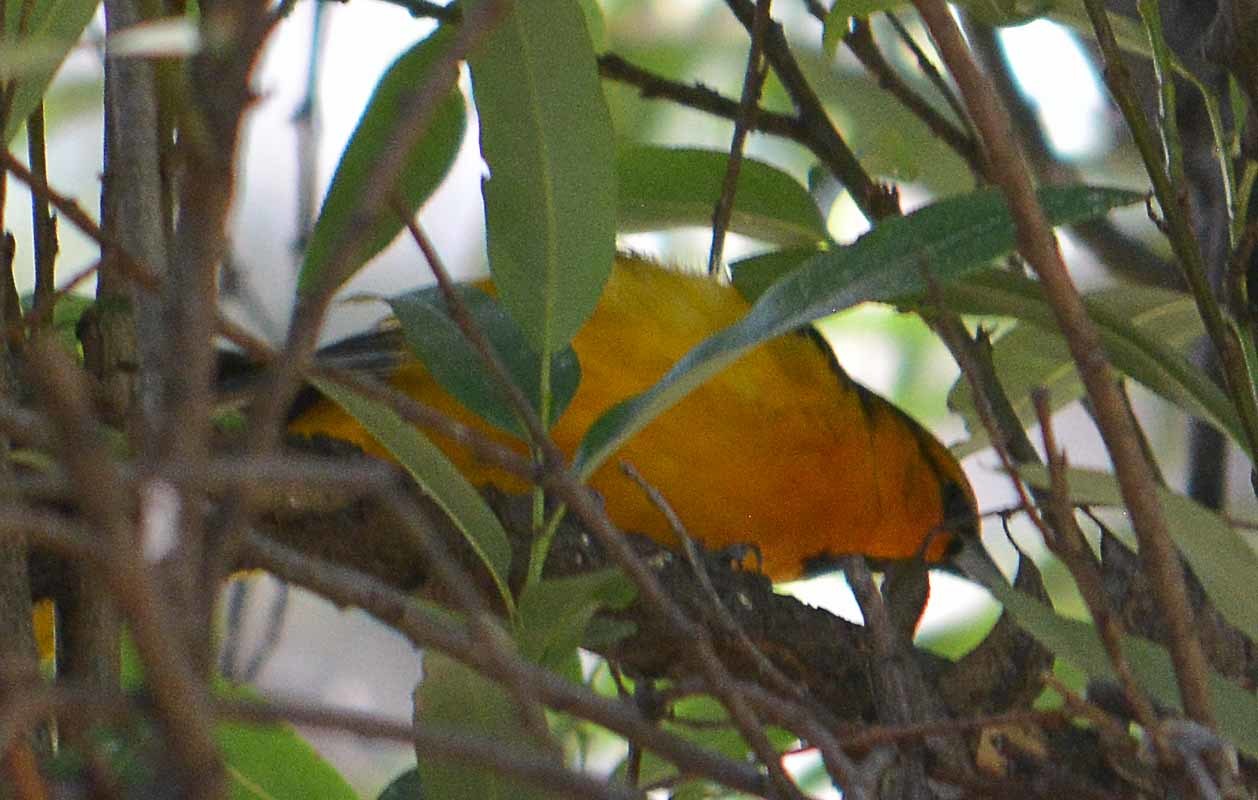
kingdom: Animalia
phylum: Chordata
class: Aves
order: Passeriformes
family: Icteridae
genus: Icterus
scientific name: Icterus bullockii
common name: Bullock's oriole
